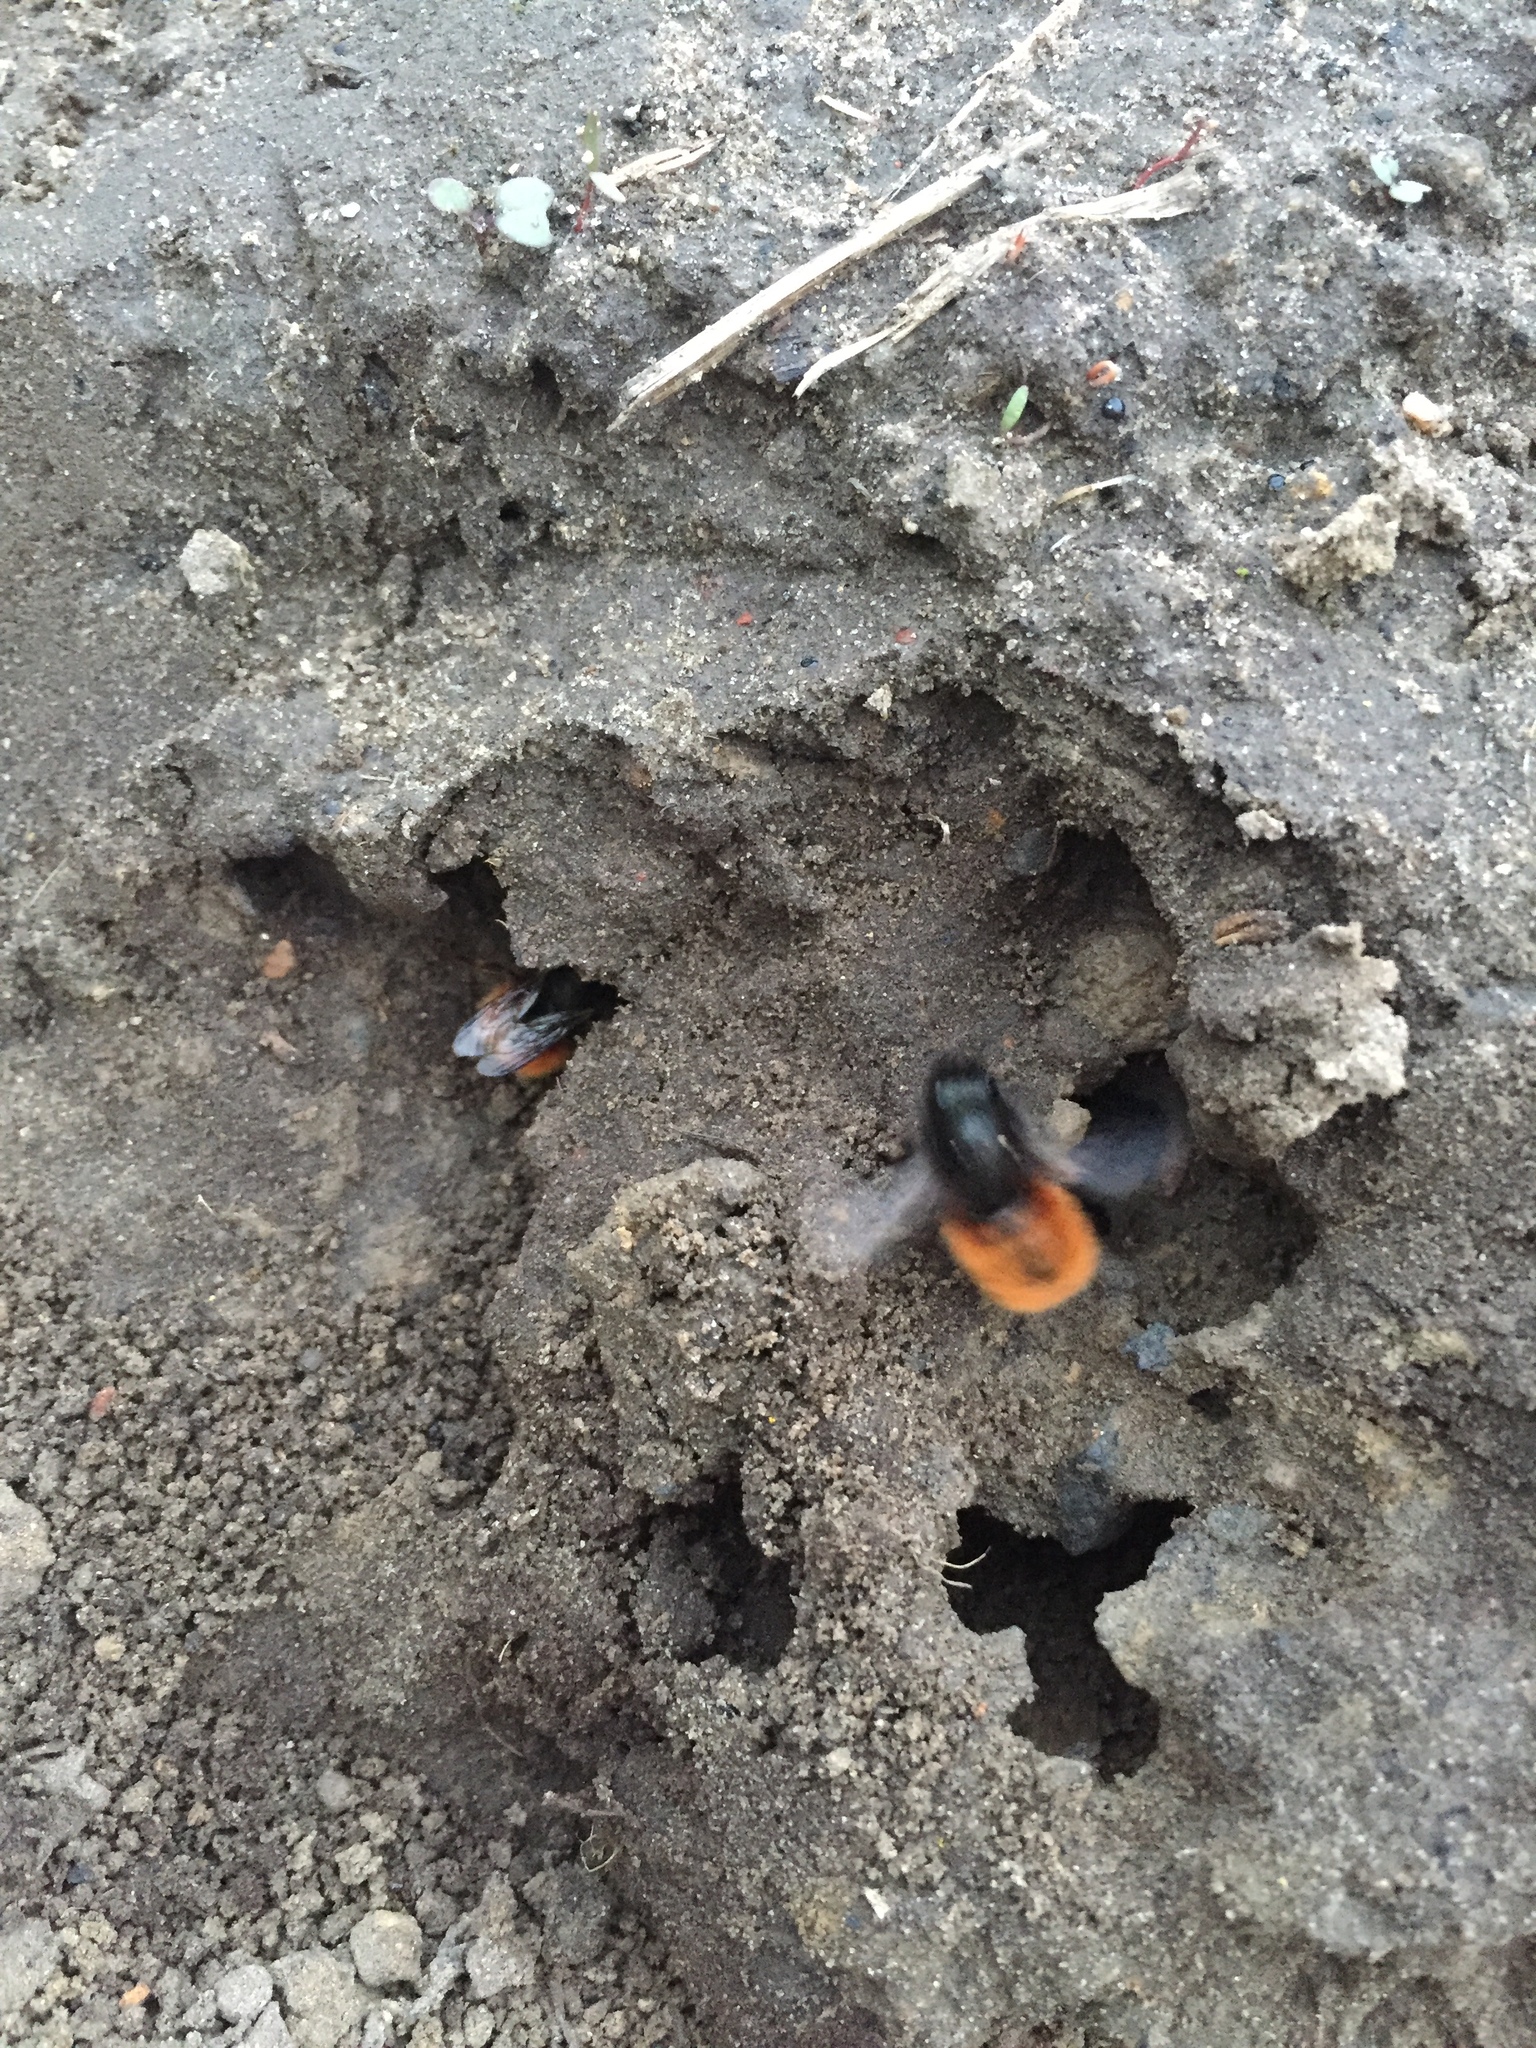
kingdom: Animalia
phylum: Arthropoda
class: Insecta
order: Hymenoptera
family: Megachilidae
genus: Osmia
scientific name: Osmia cornuta
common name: Mason bee
